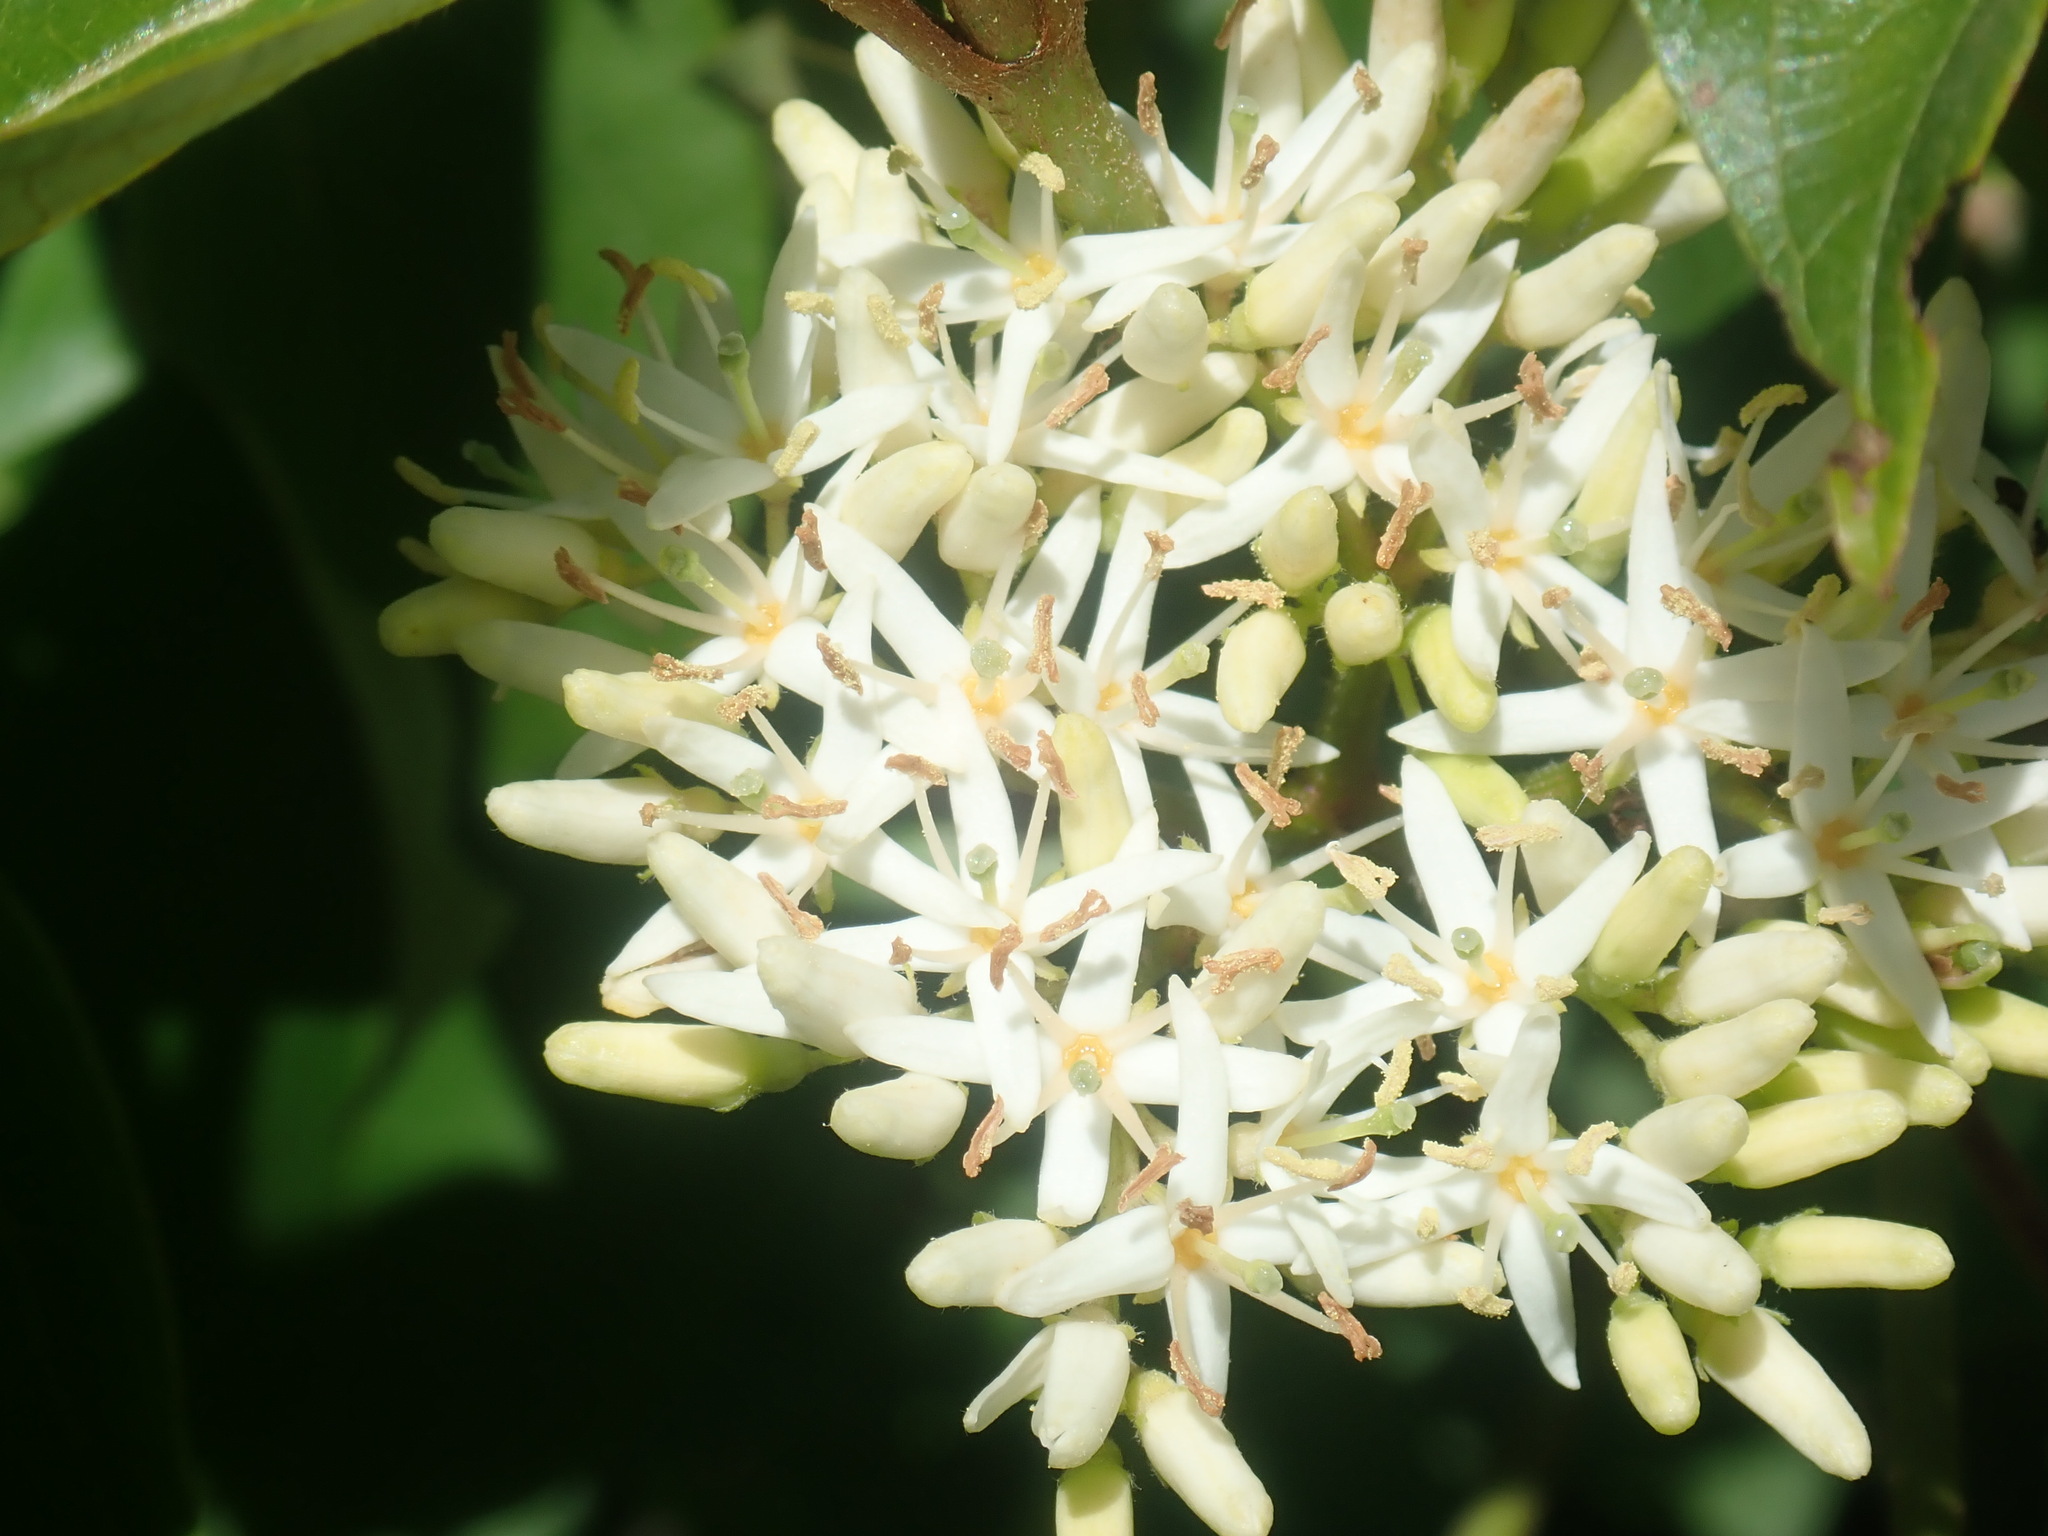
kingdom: Plantae
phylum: Tracheophyta
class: Magnoliopsida
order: Cornales
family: Cornaceae
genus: Cornus
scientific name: Cornus amomum
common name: Silky dogwood
